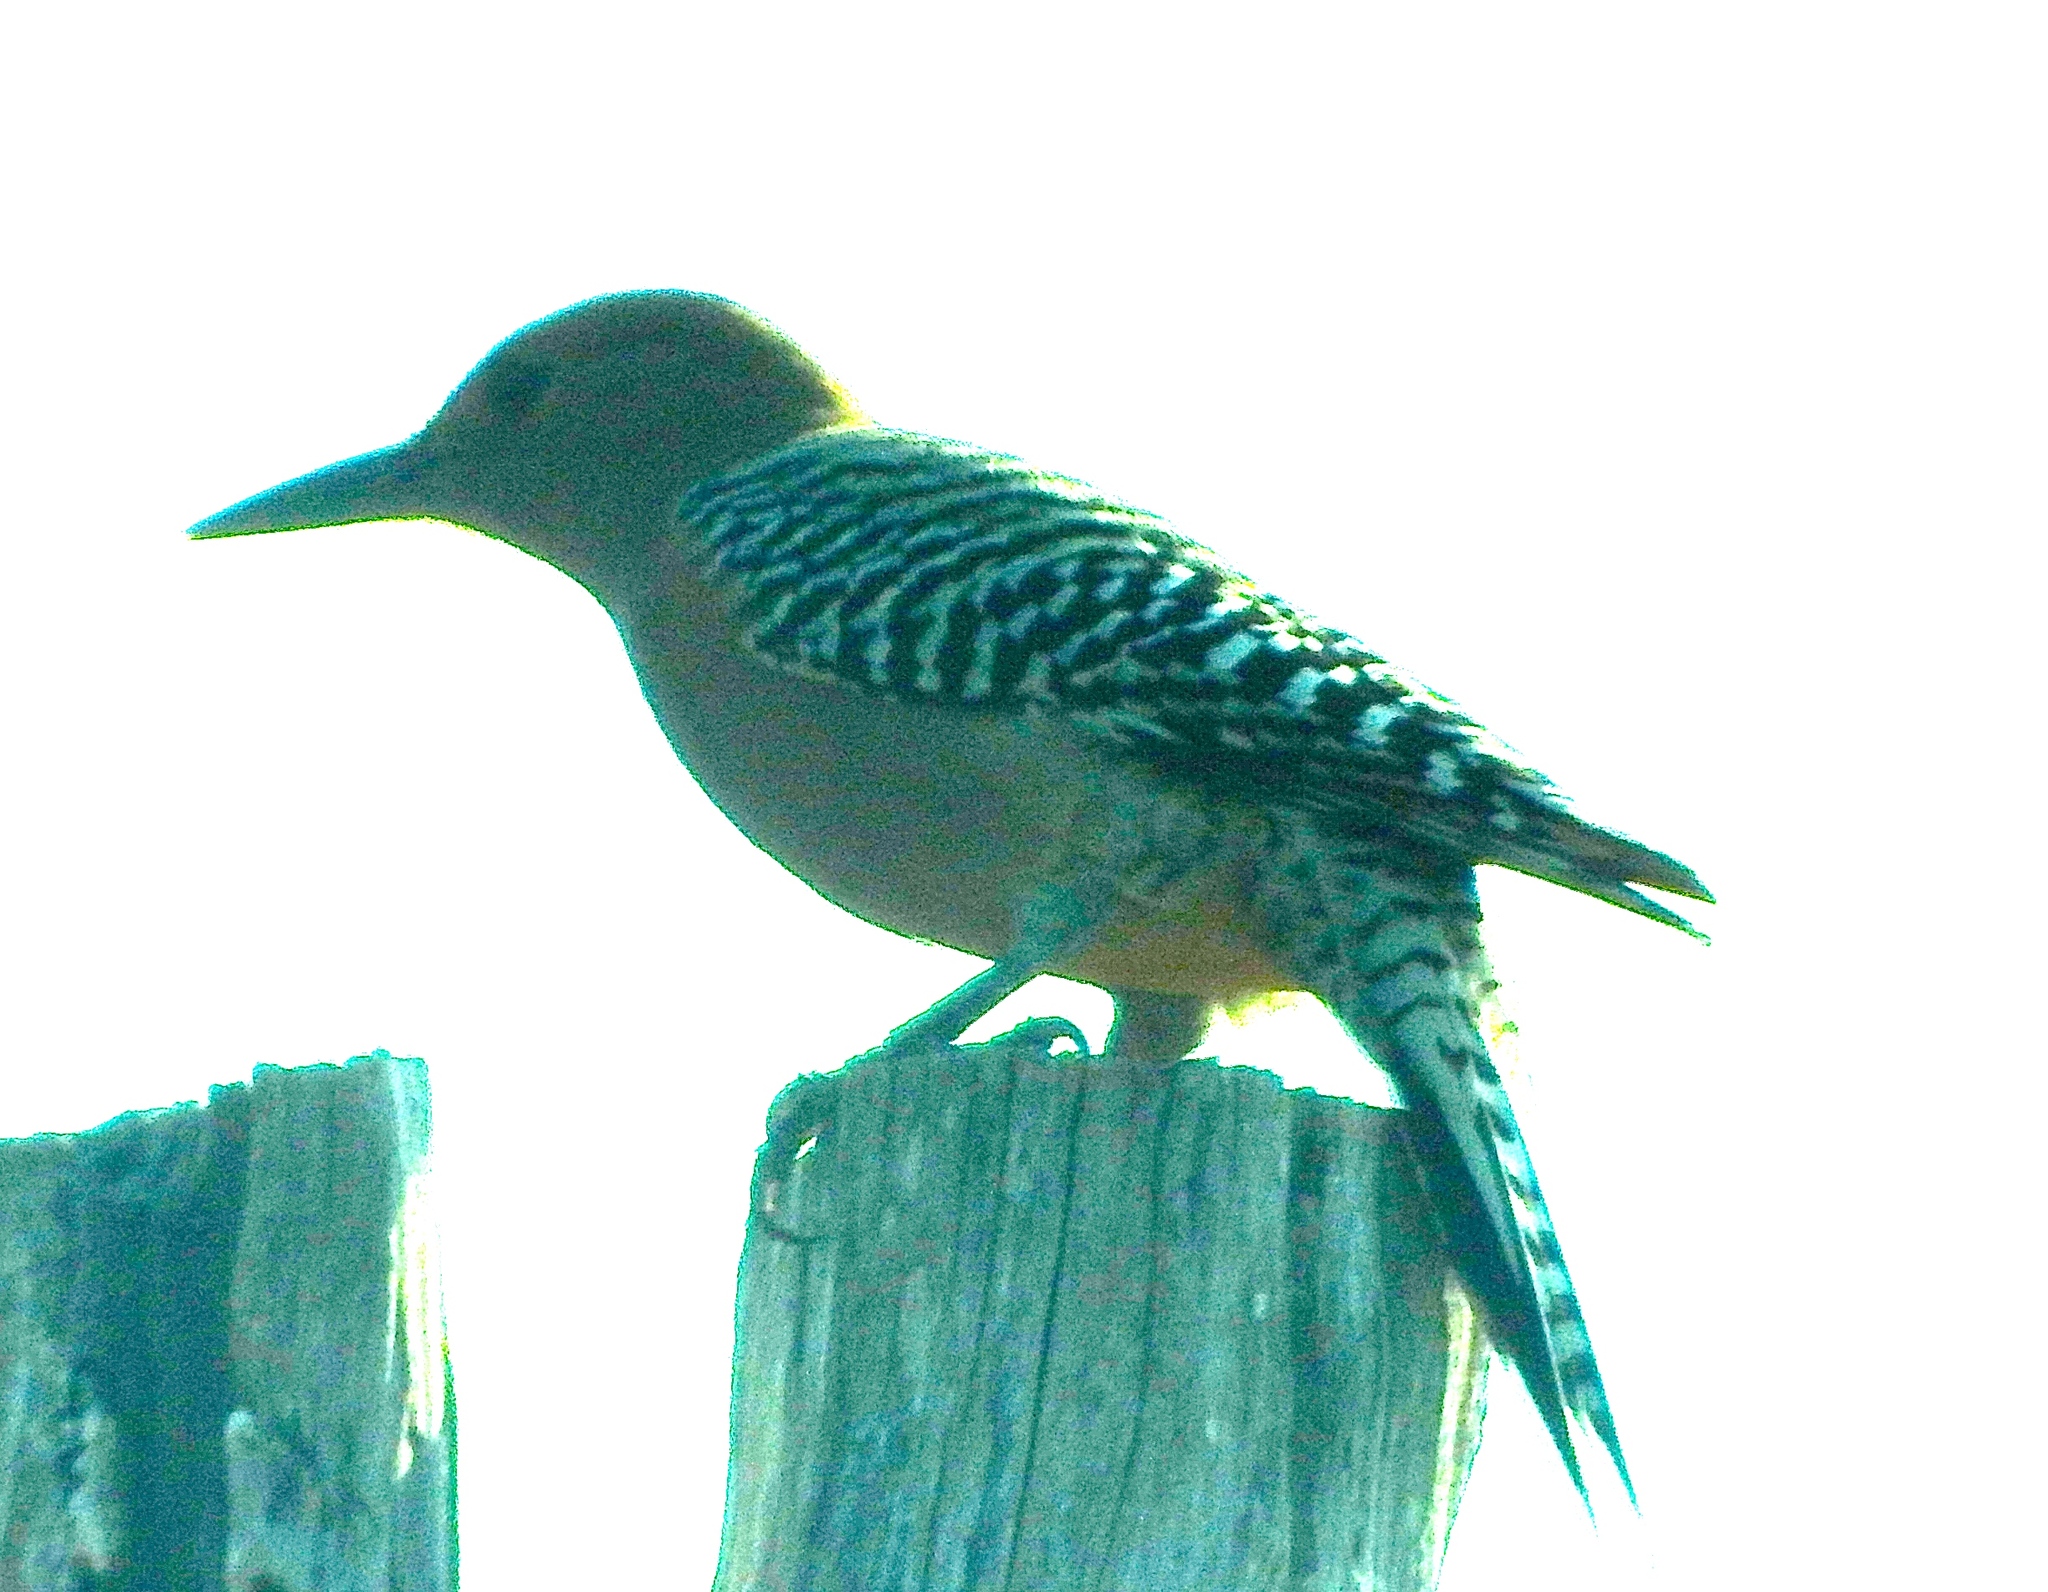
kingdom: Animalia
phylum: Chordata
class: Aves
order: Piciformes
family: Picidae
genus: Melanerpes
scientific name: Melanerpes uropygialis
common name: Gila woodpecker
